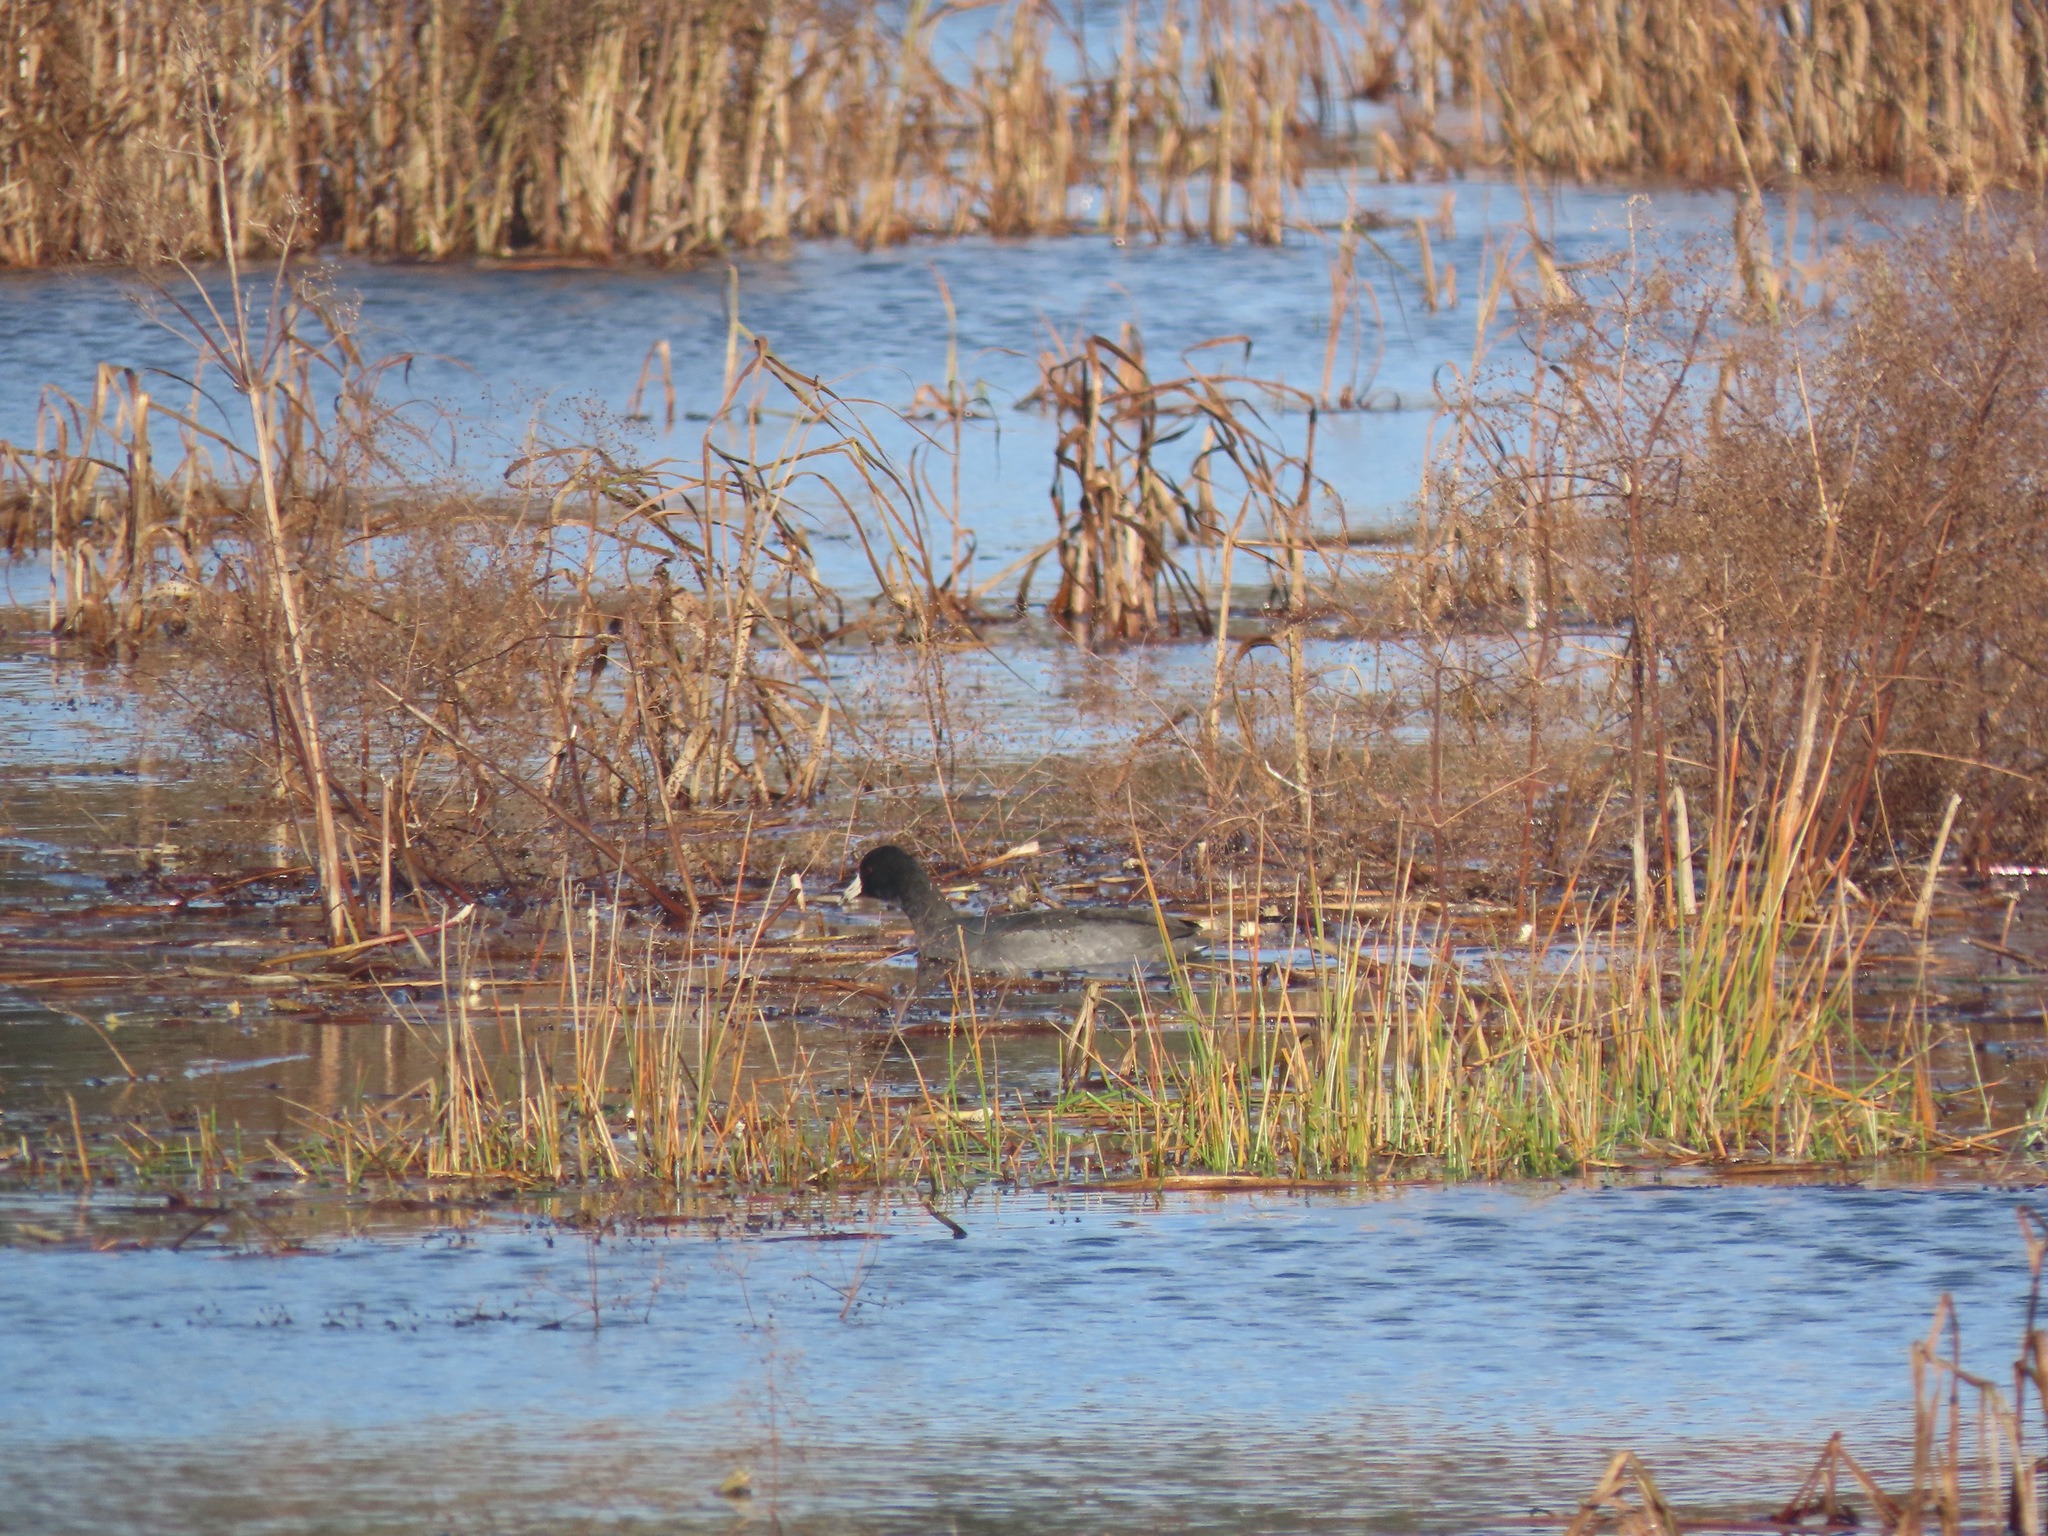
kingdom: Animalia
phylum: Chordata
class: Aves
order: Gruiformes
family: Rallidae
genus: Fulica
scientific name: Fulica americana
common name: American coot
